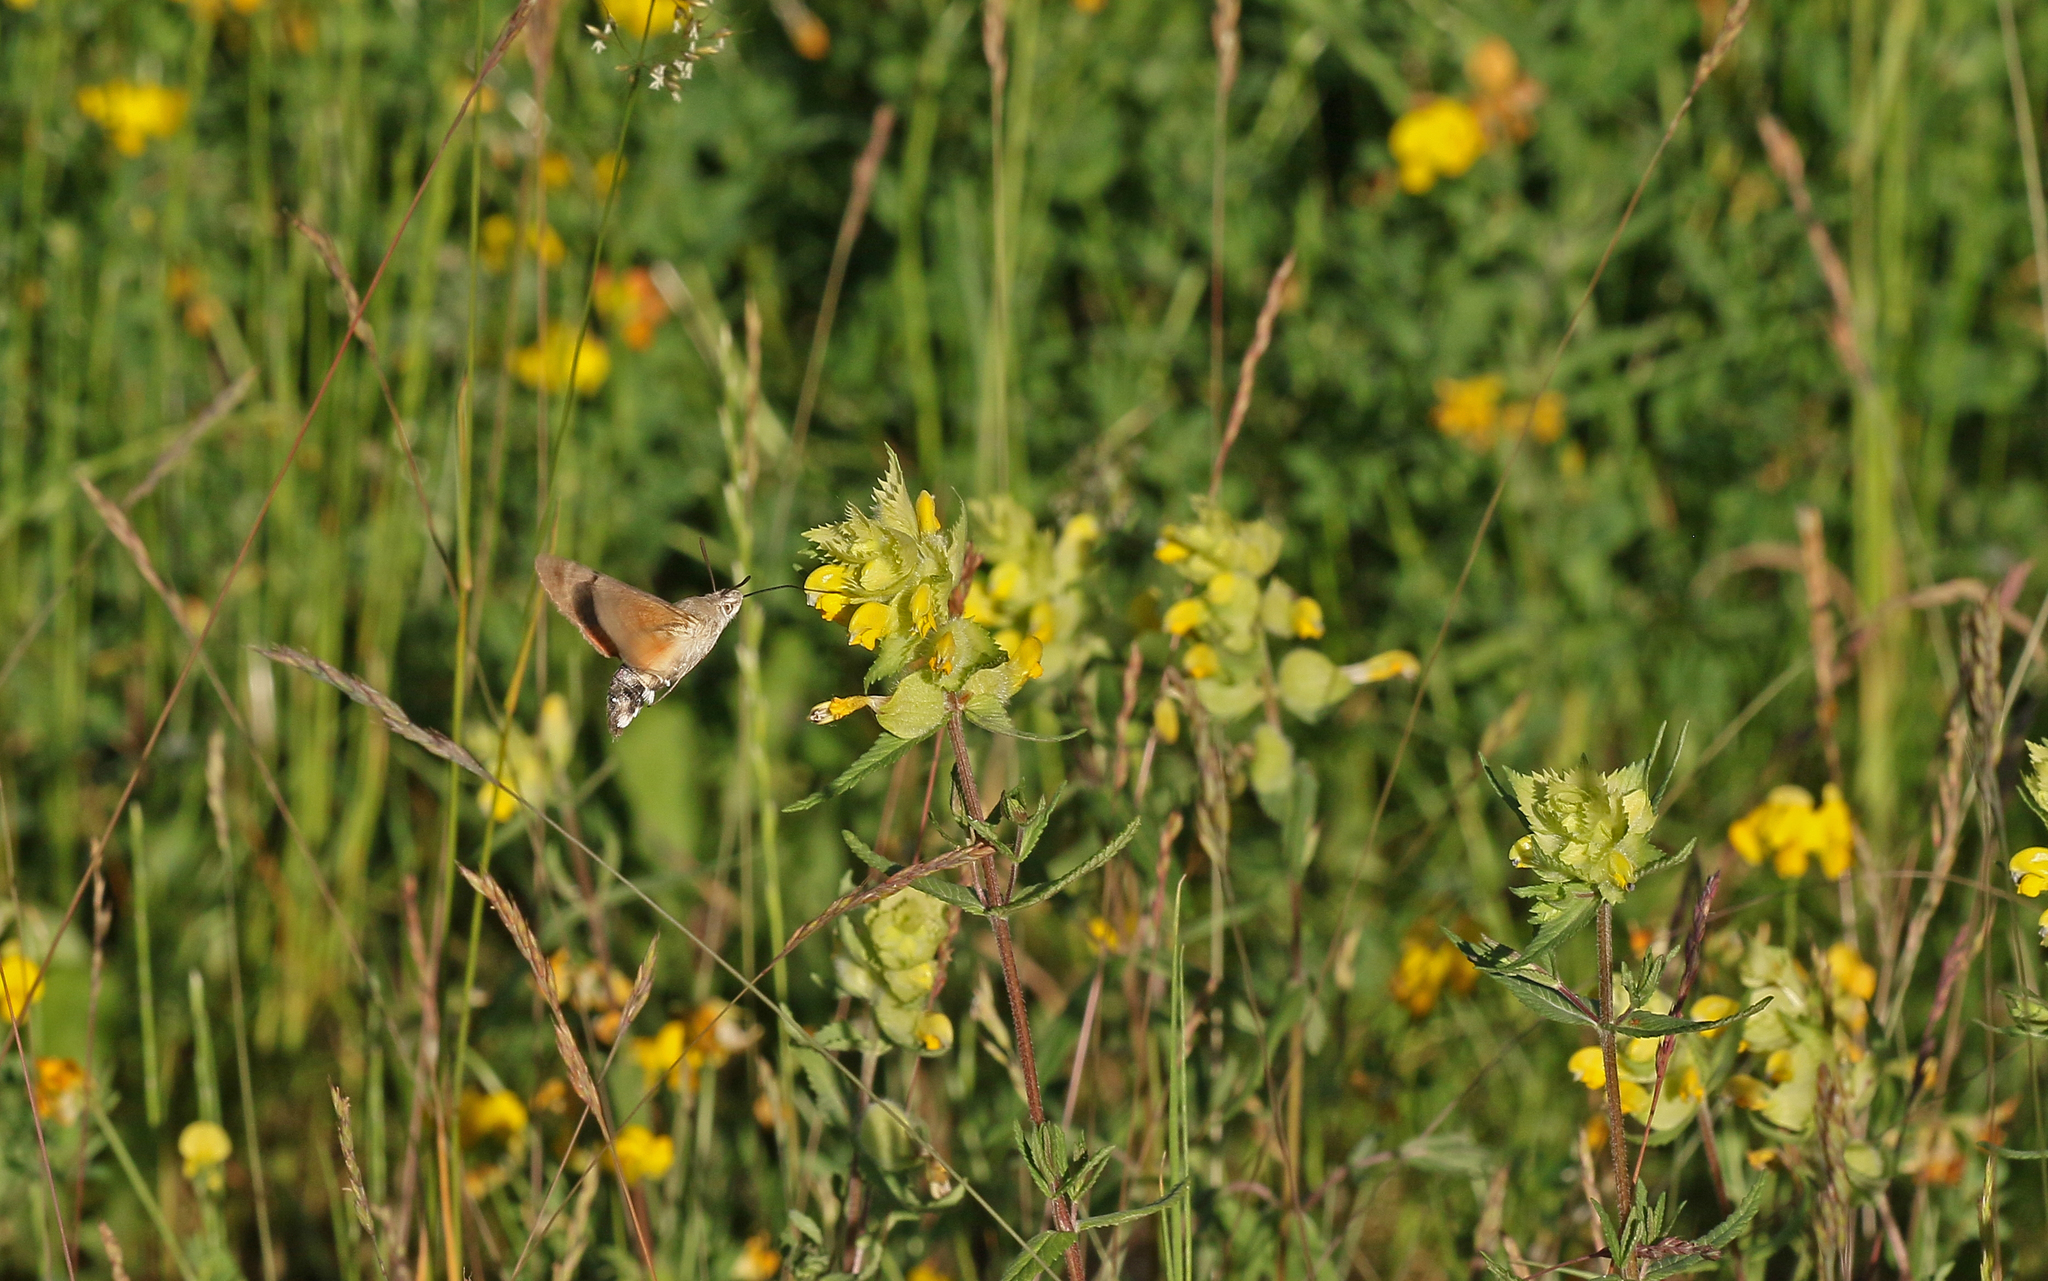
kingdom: Animalia
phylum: Arthropoda
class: Insecta
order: Lepidoptera
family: Sphingidae
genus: Macroglossum
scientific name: Macroglossum stellatarum
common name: Humming-bird hawk-moth
